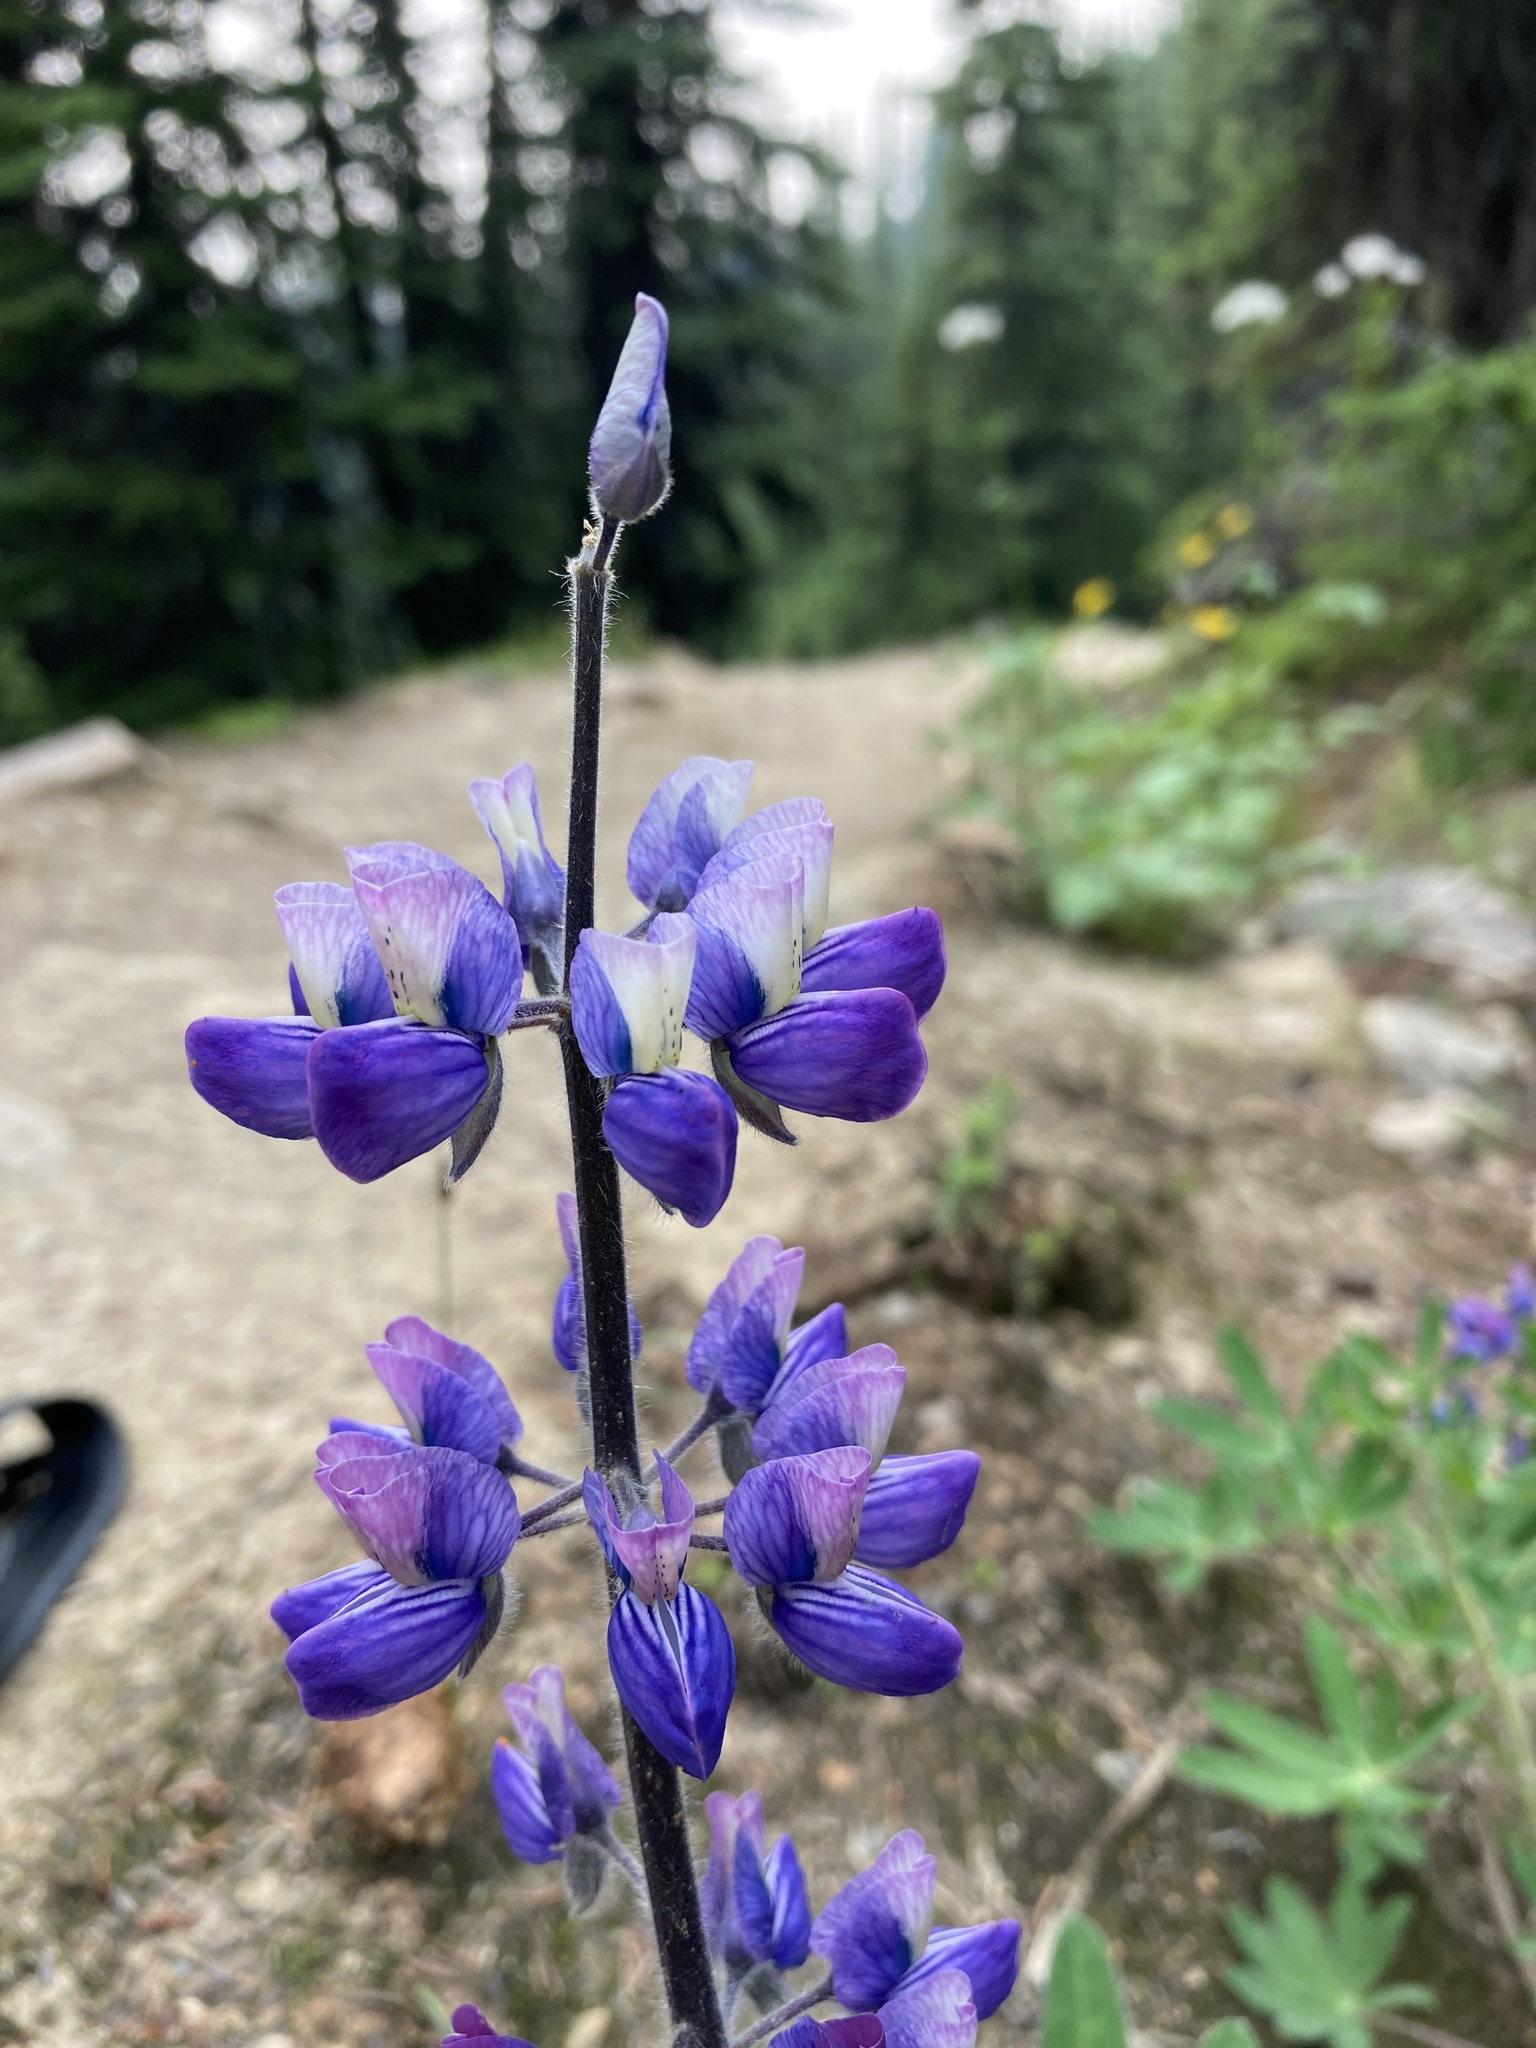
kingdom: Plantae
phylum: Tracheophyta
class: Magnoliopsida
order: Fabales
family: Fabaceae
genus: Lupinus
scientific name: Lupinus nootkatensis
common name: Nootka lupine
